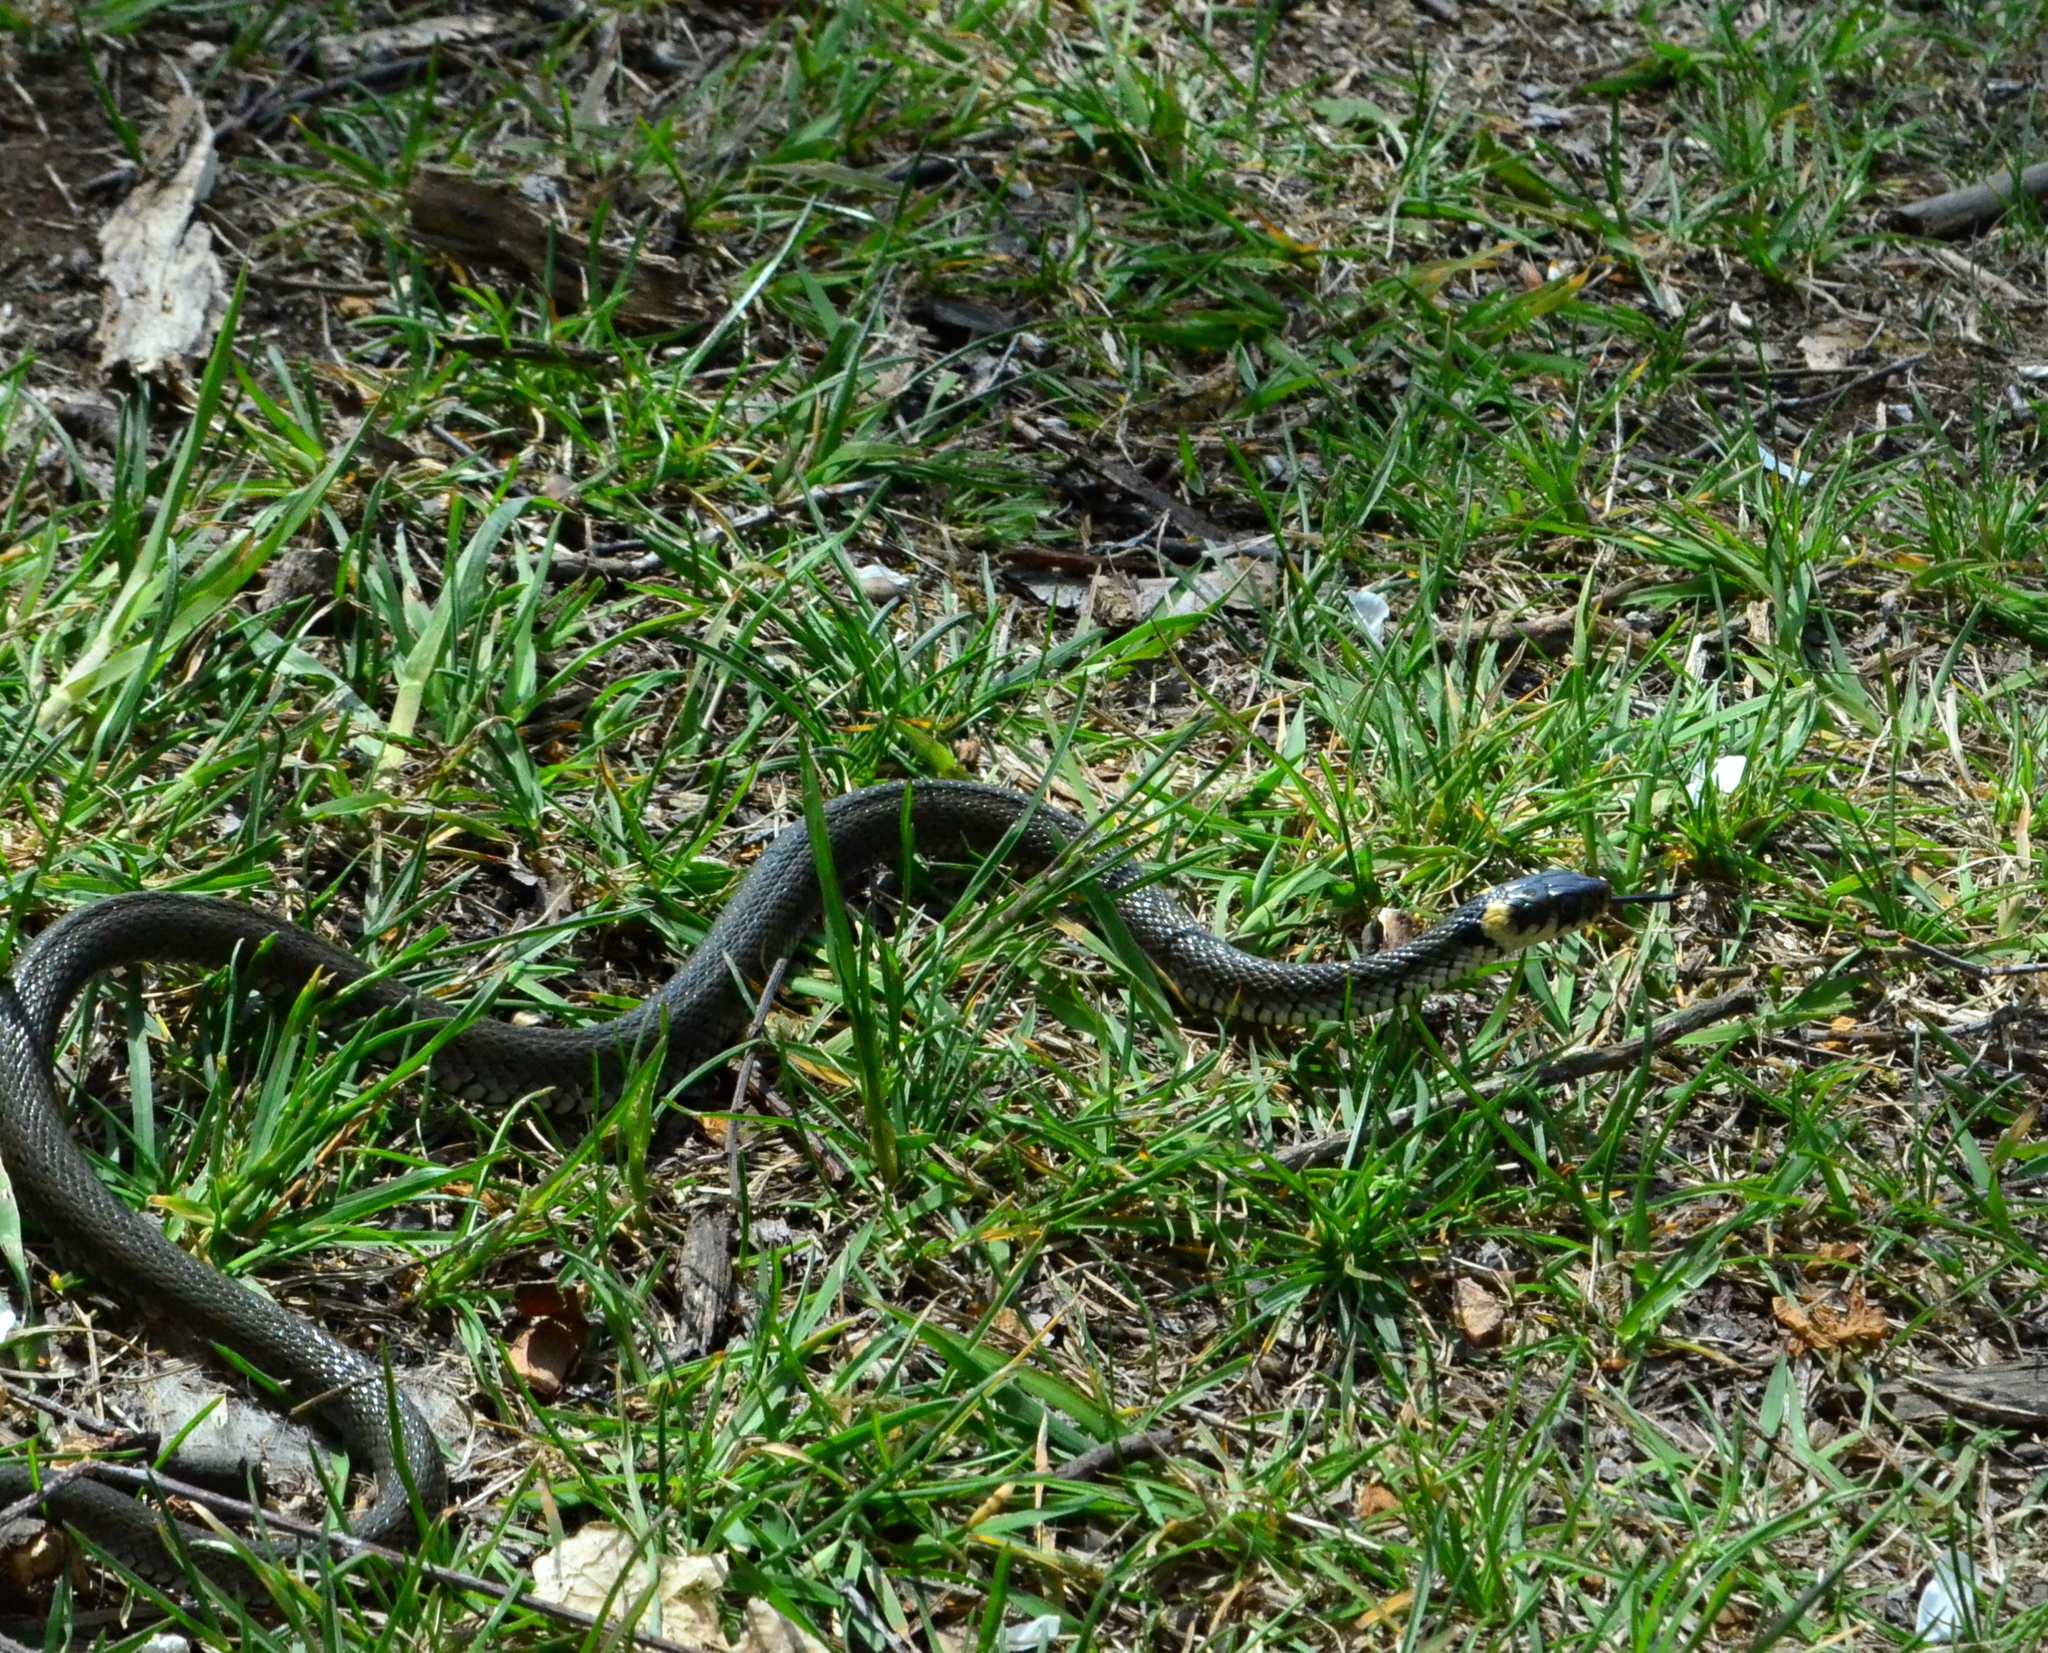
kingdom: Animalia
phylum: Chordata
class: Squamata
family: Colubridae
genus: Natrix
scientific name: Natrix natrix
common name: Grass snake
